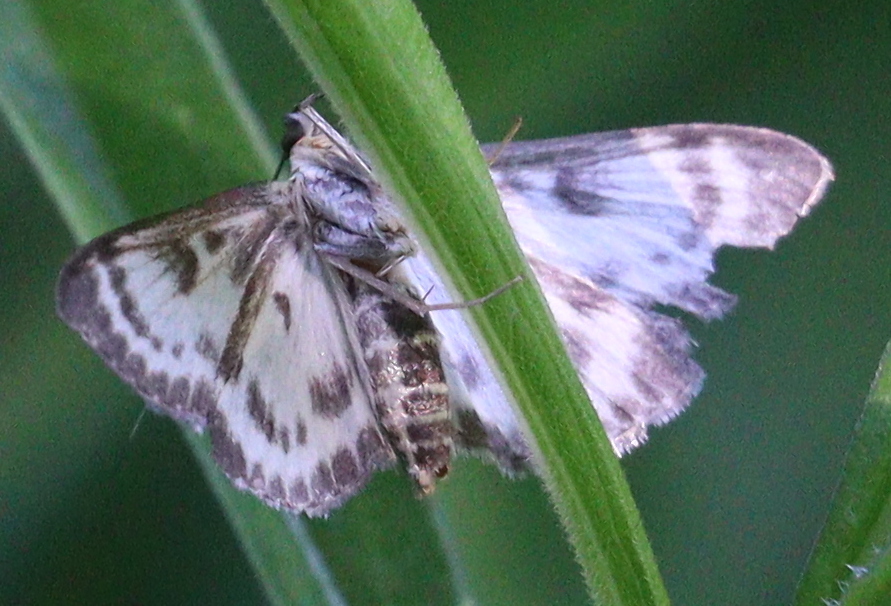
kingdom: Animalia
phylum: Arthropoda
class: Insecta
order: Lepidoptera
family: Crambidae
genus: Anania
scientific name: Anania hortulata
